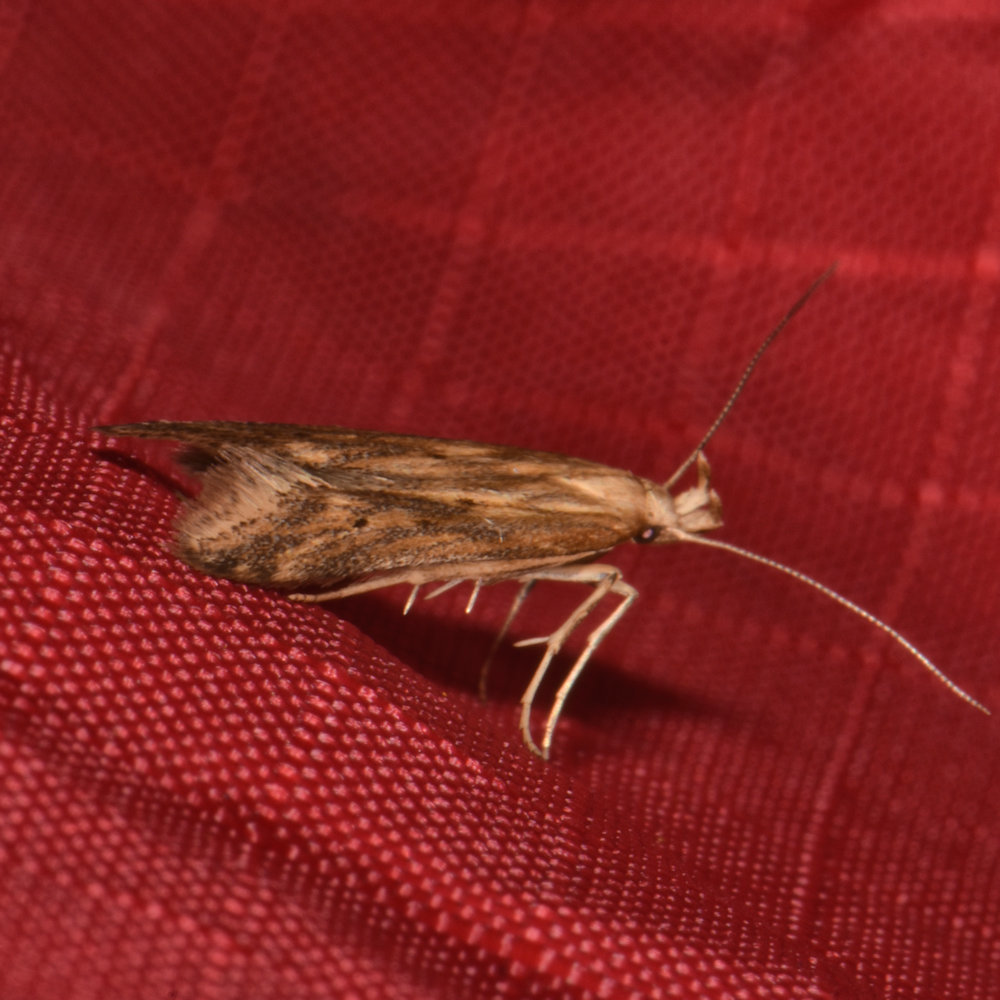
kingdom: Animalia
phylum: Arthropoda
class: Insecta
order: Lepidoptera
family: Gelechiidae
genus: Metzneria
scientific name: Metzneria lappella
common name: Burdock neb
